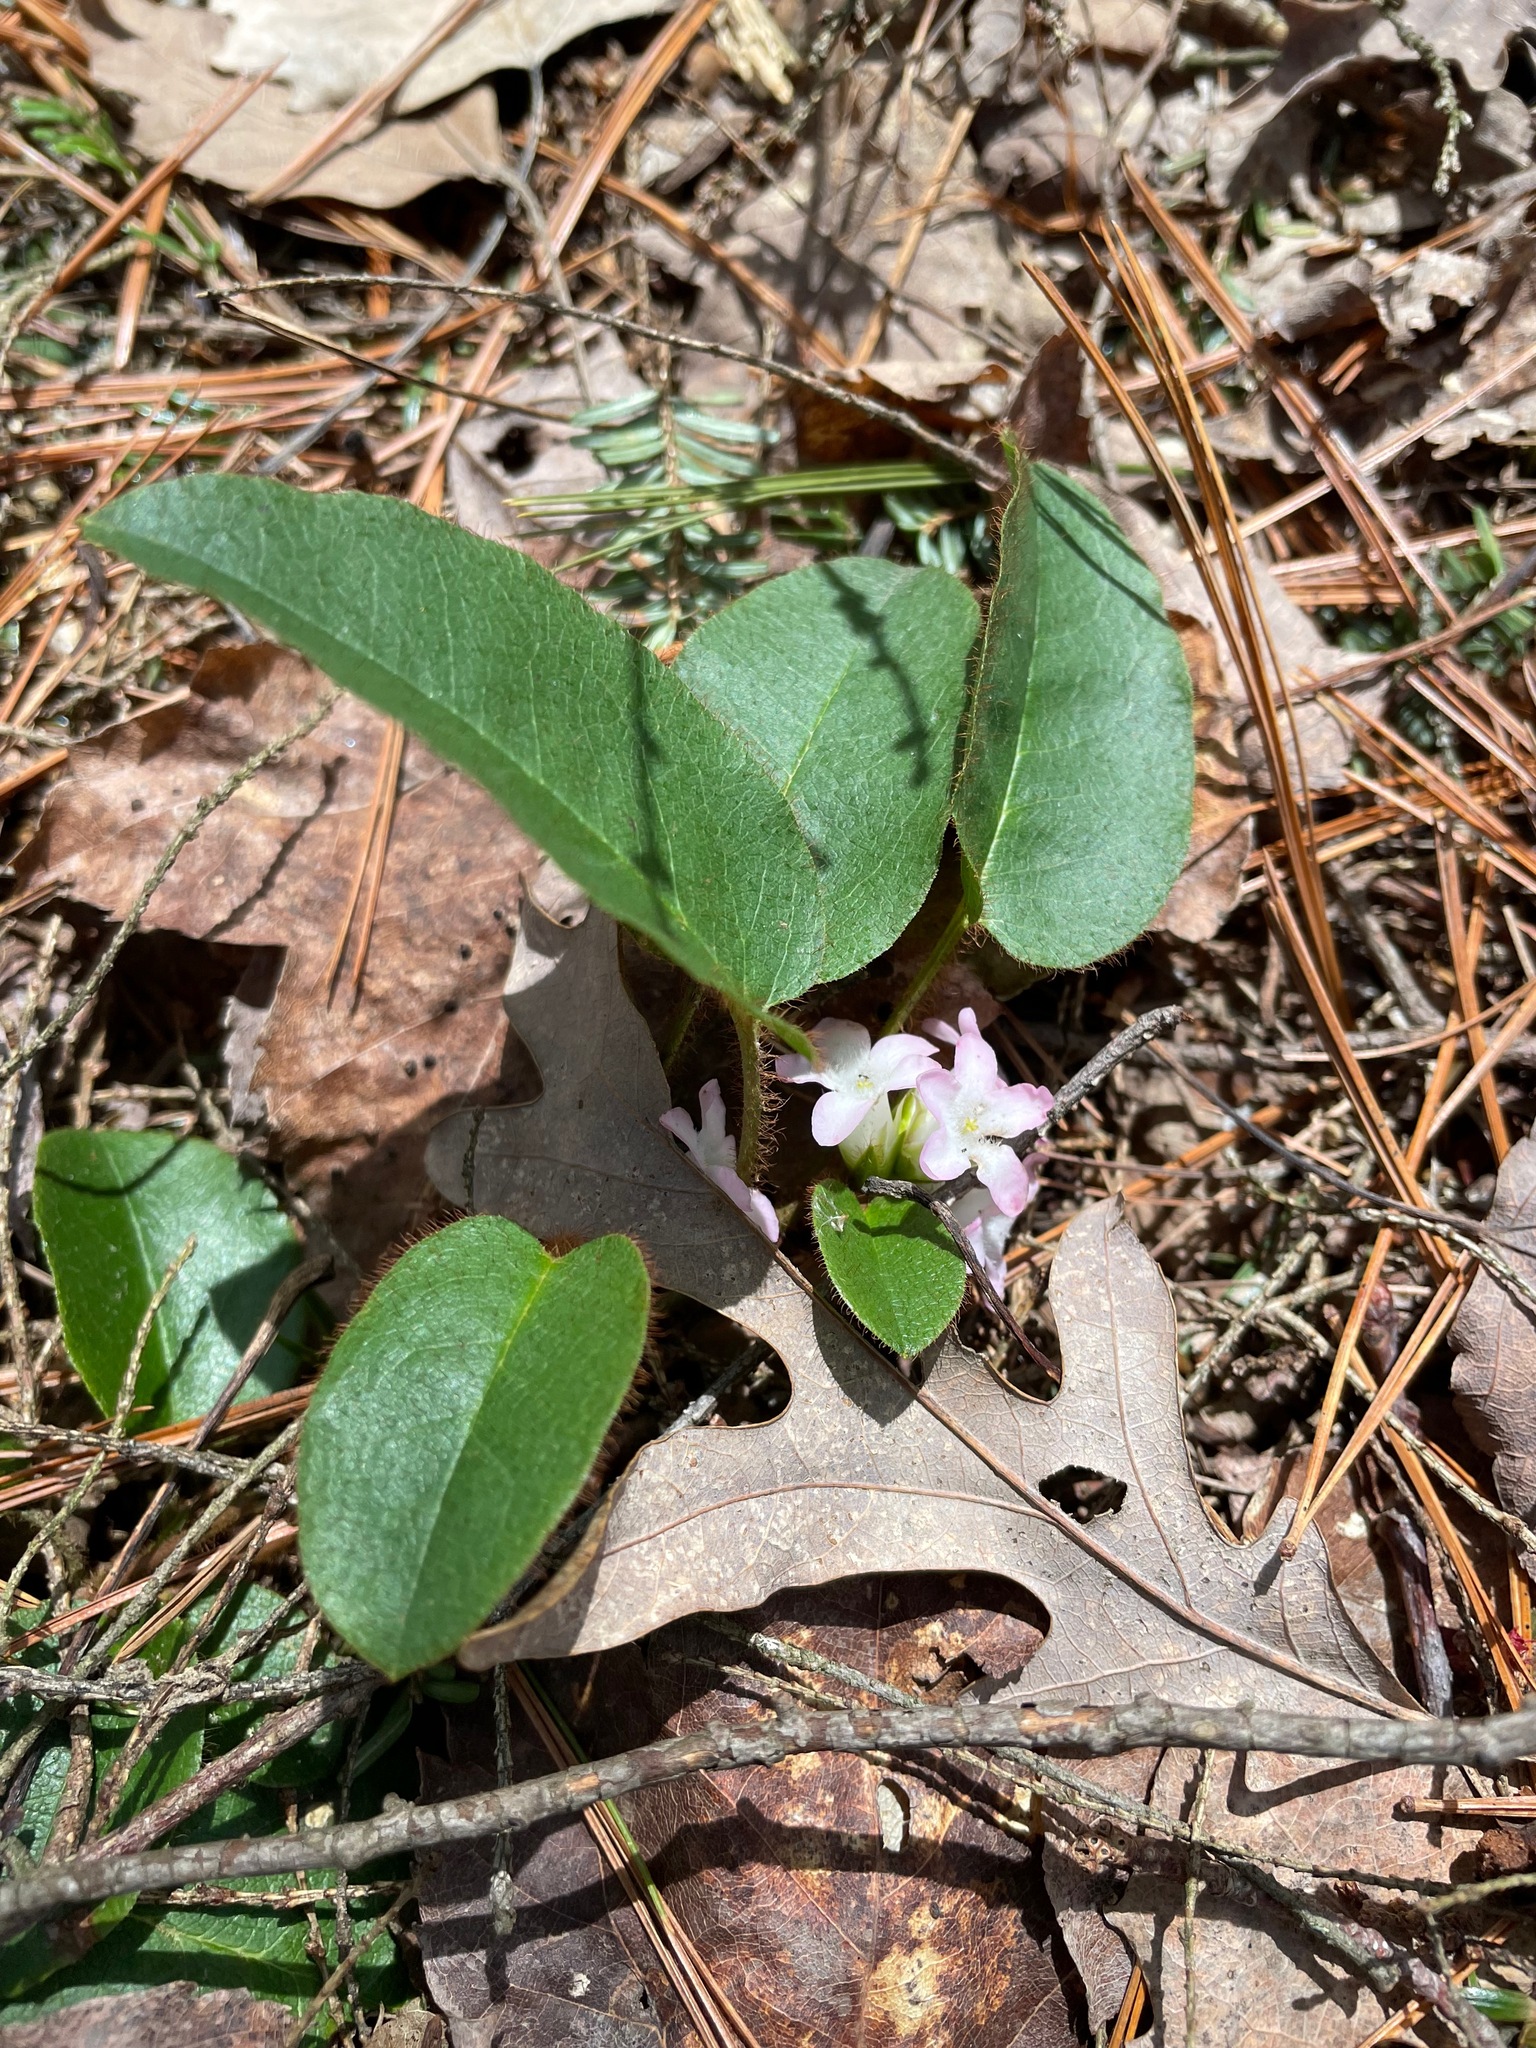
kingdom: Plantae
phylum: Tracheophyta
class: Magnoliopsida
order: Ericales
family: Ericaceae
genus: Epigaea
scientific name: Epigaea repens
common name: Gravelroot
